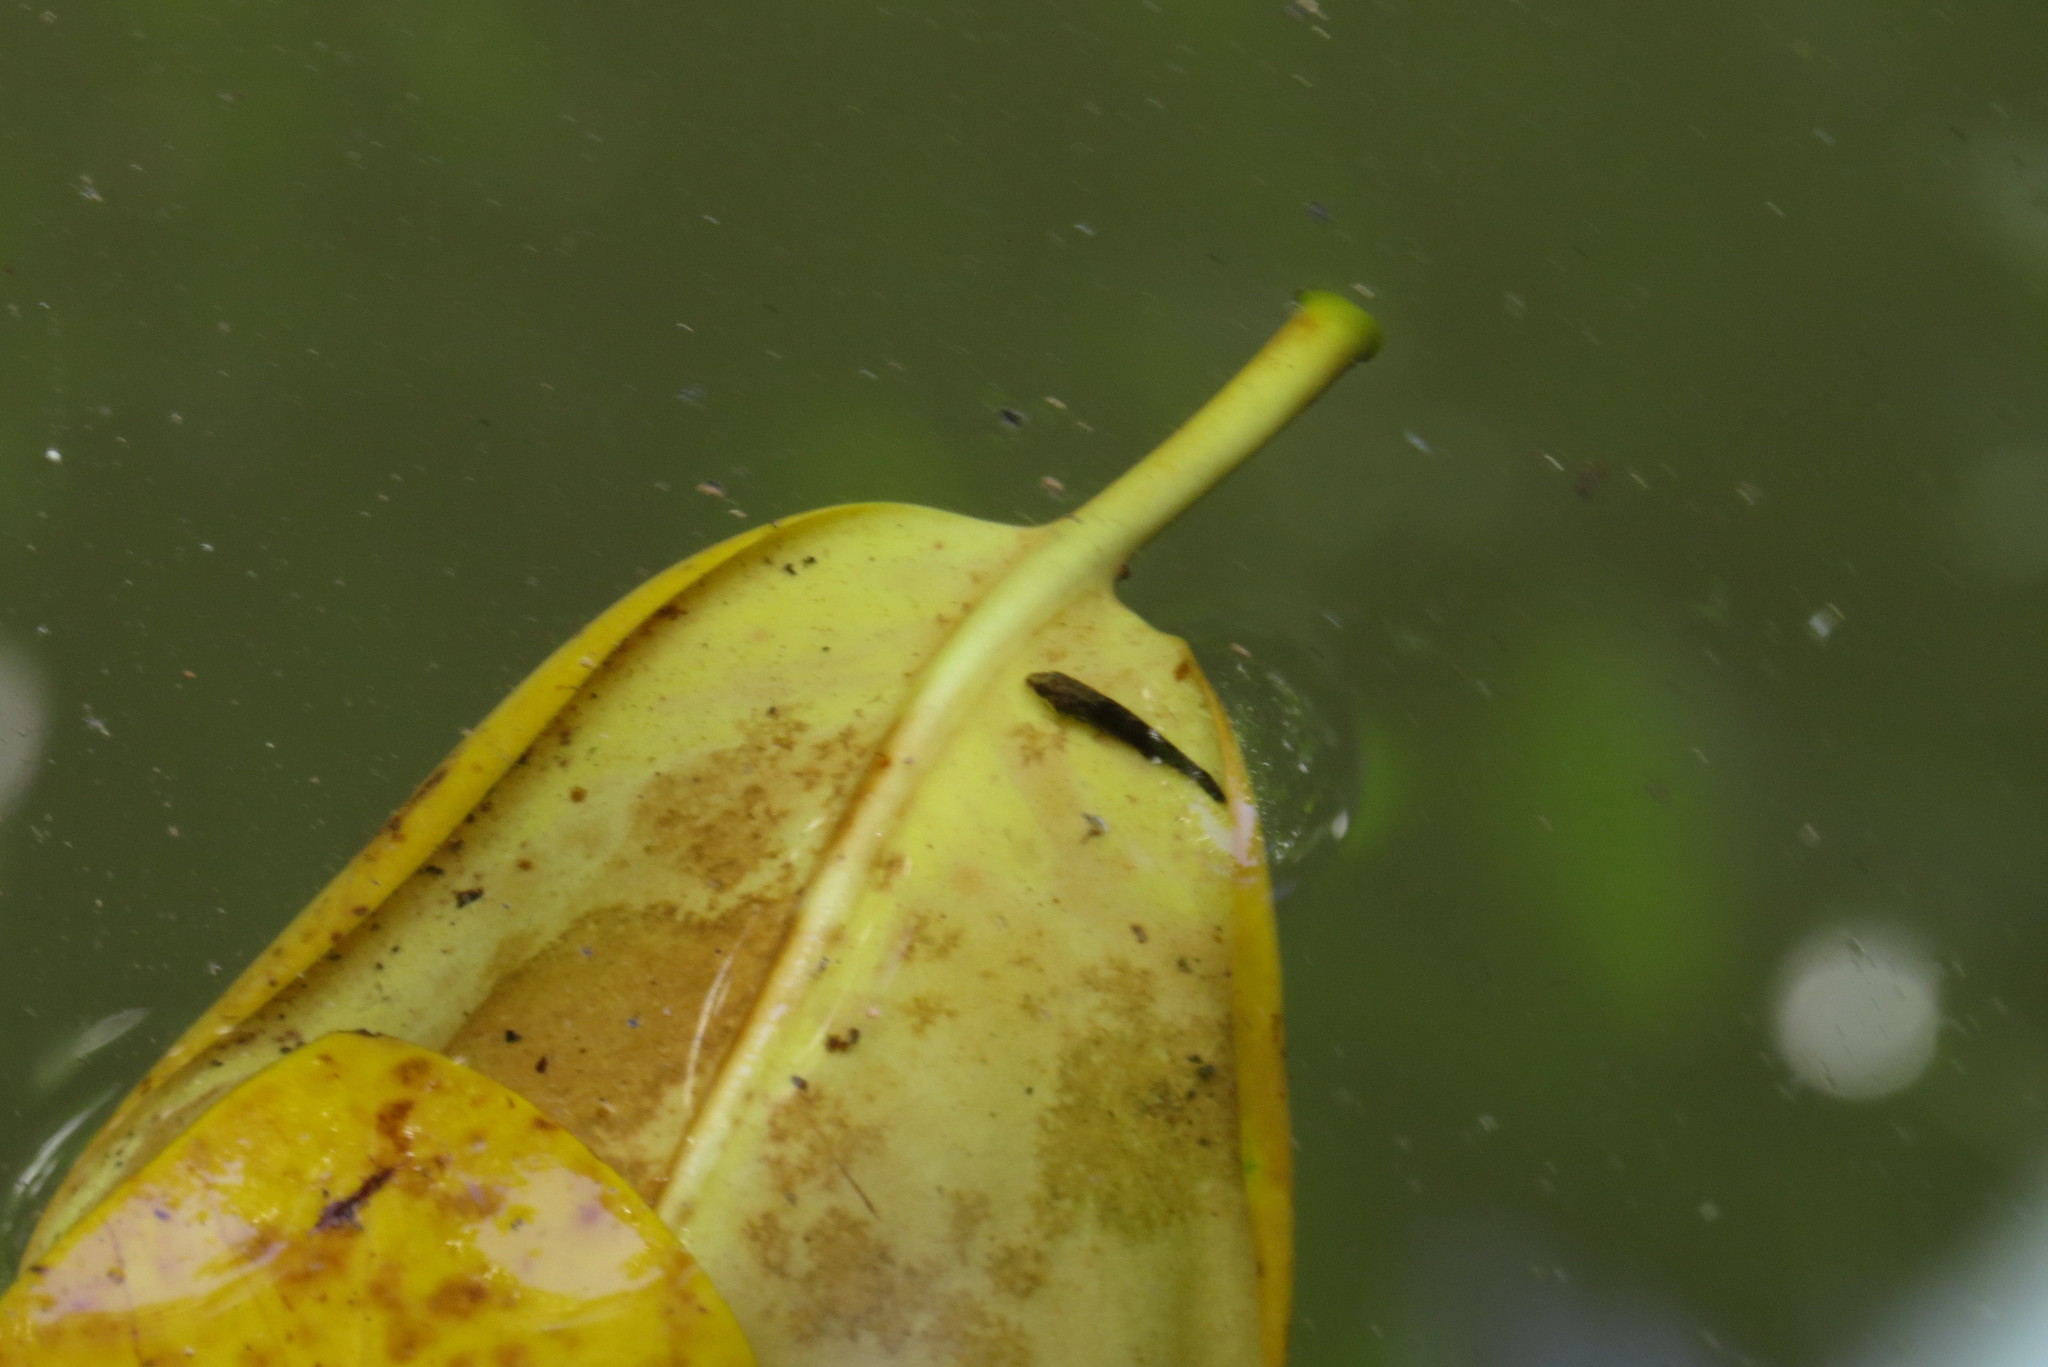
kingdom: Animalia
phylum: Chordata
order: Perciformes
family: Eleotridae
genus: Butis
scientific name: Butis butis
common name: Duckbill sleeper
